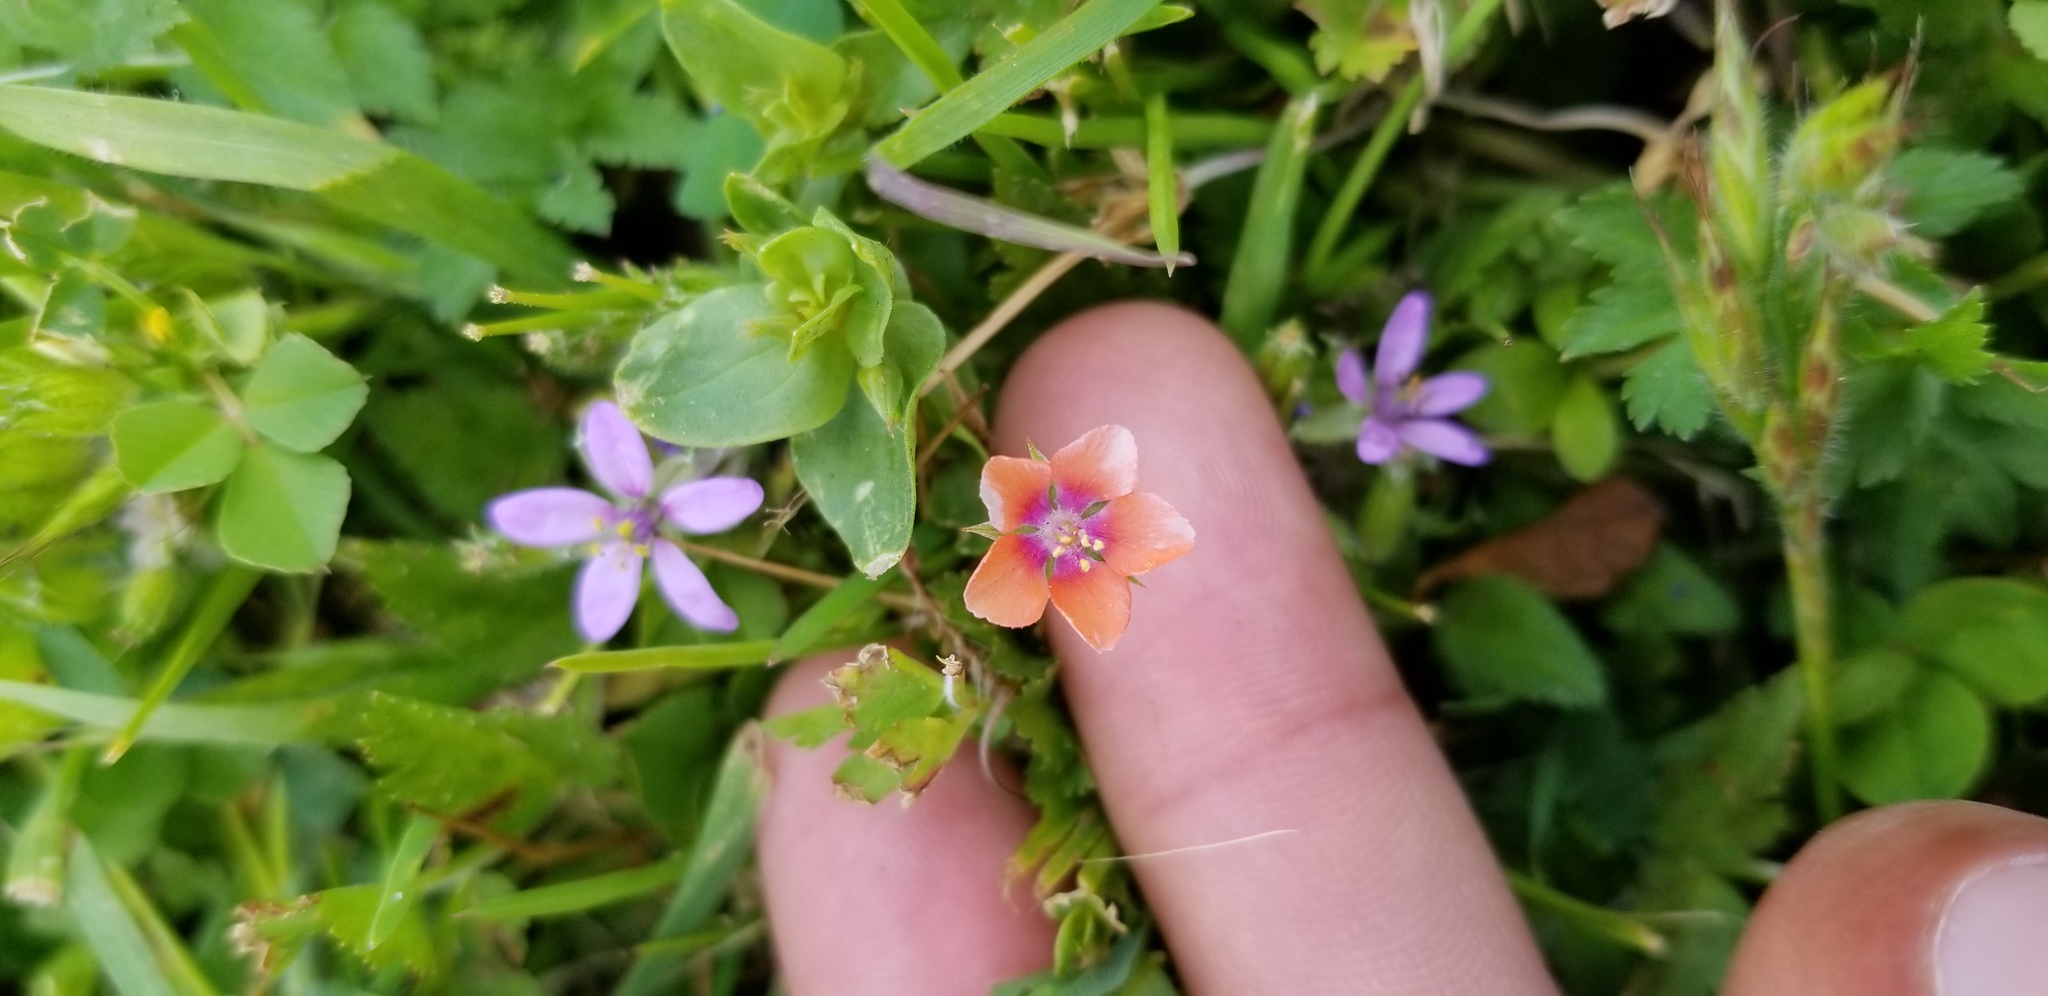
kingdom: Plantae
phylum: Tracheophyta
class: Magnoliopsida
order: Ericales
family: Primulaceae
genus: Lysimachia
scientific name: Lysimachia arvensis
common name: Scarlet pimpernel
